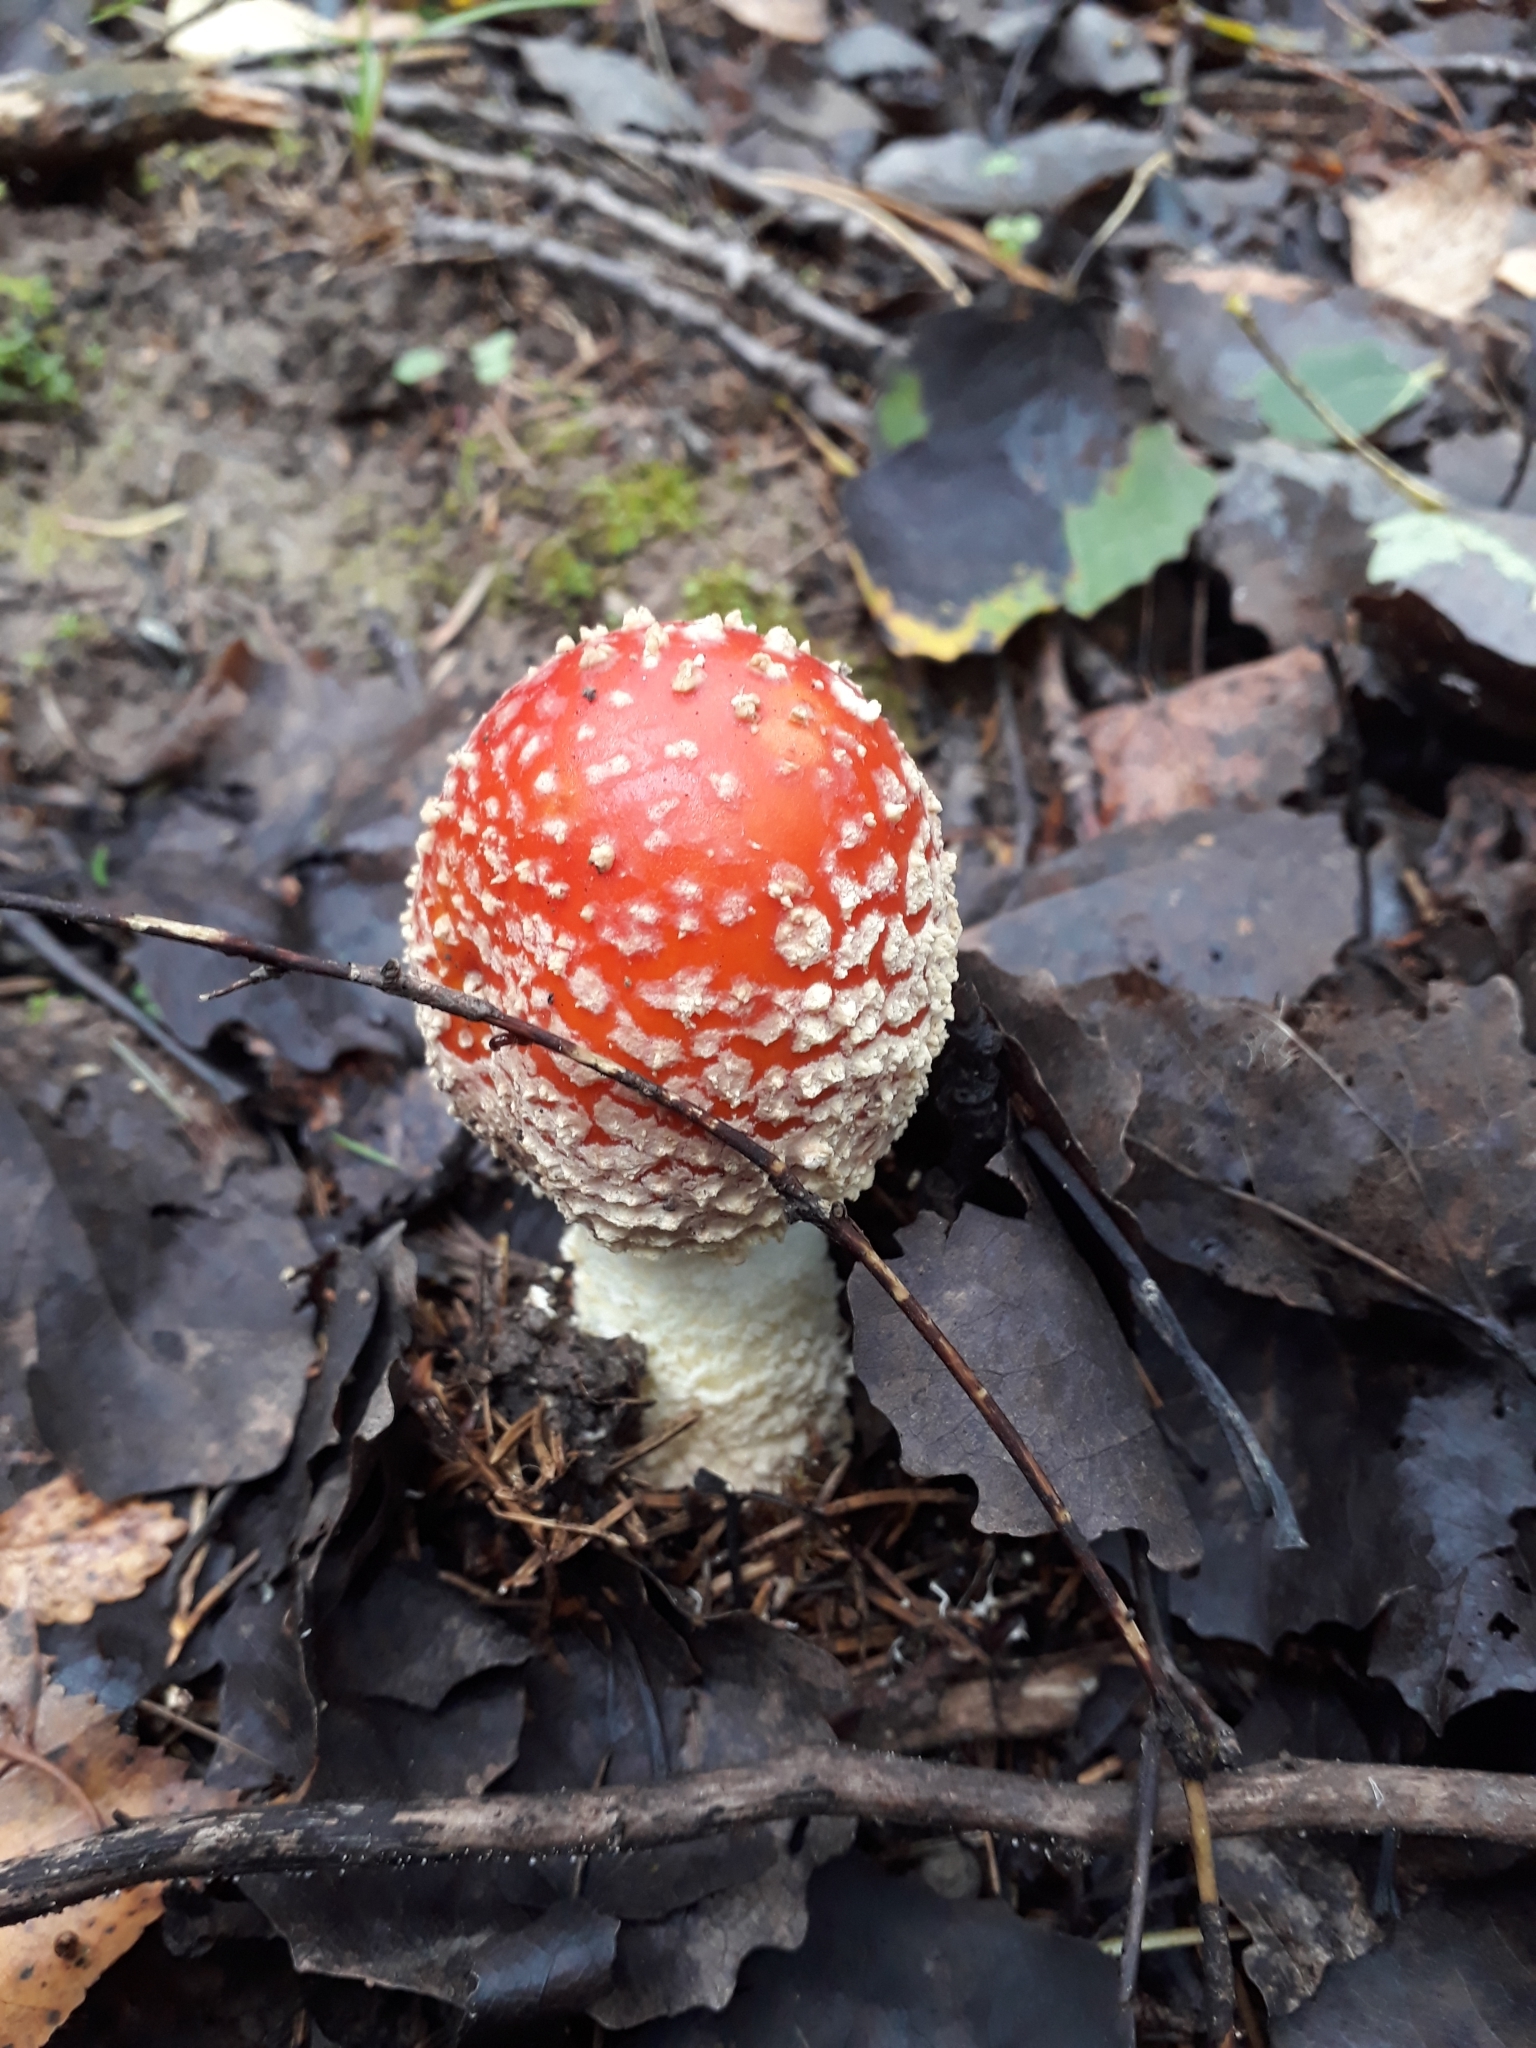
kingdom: Fungi
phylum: Basidiomycota
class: Agaricomycetes
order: Agaricales
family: Amanitaceae
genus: Amanita
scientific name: Amanita muscaria
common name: Fly agaric
